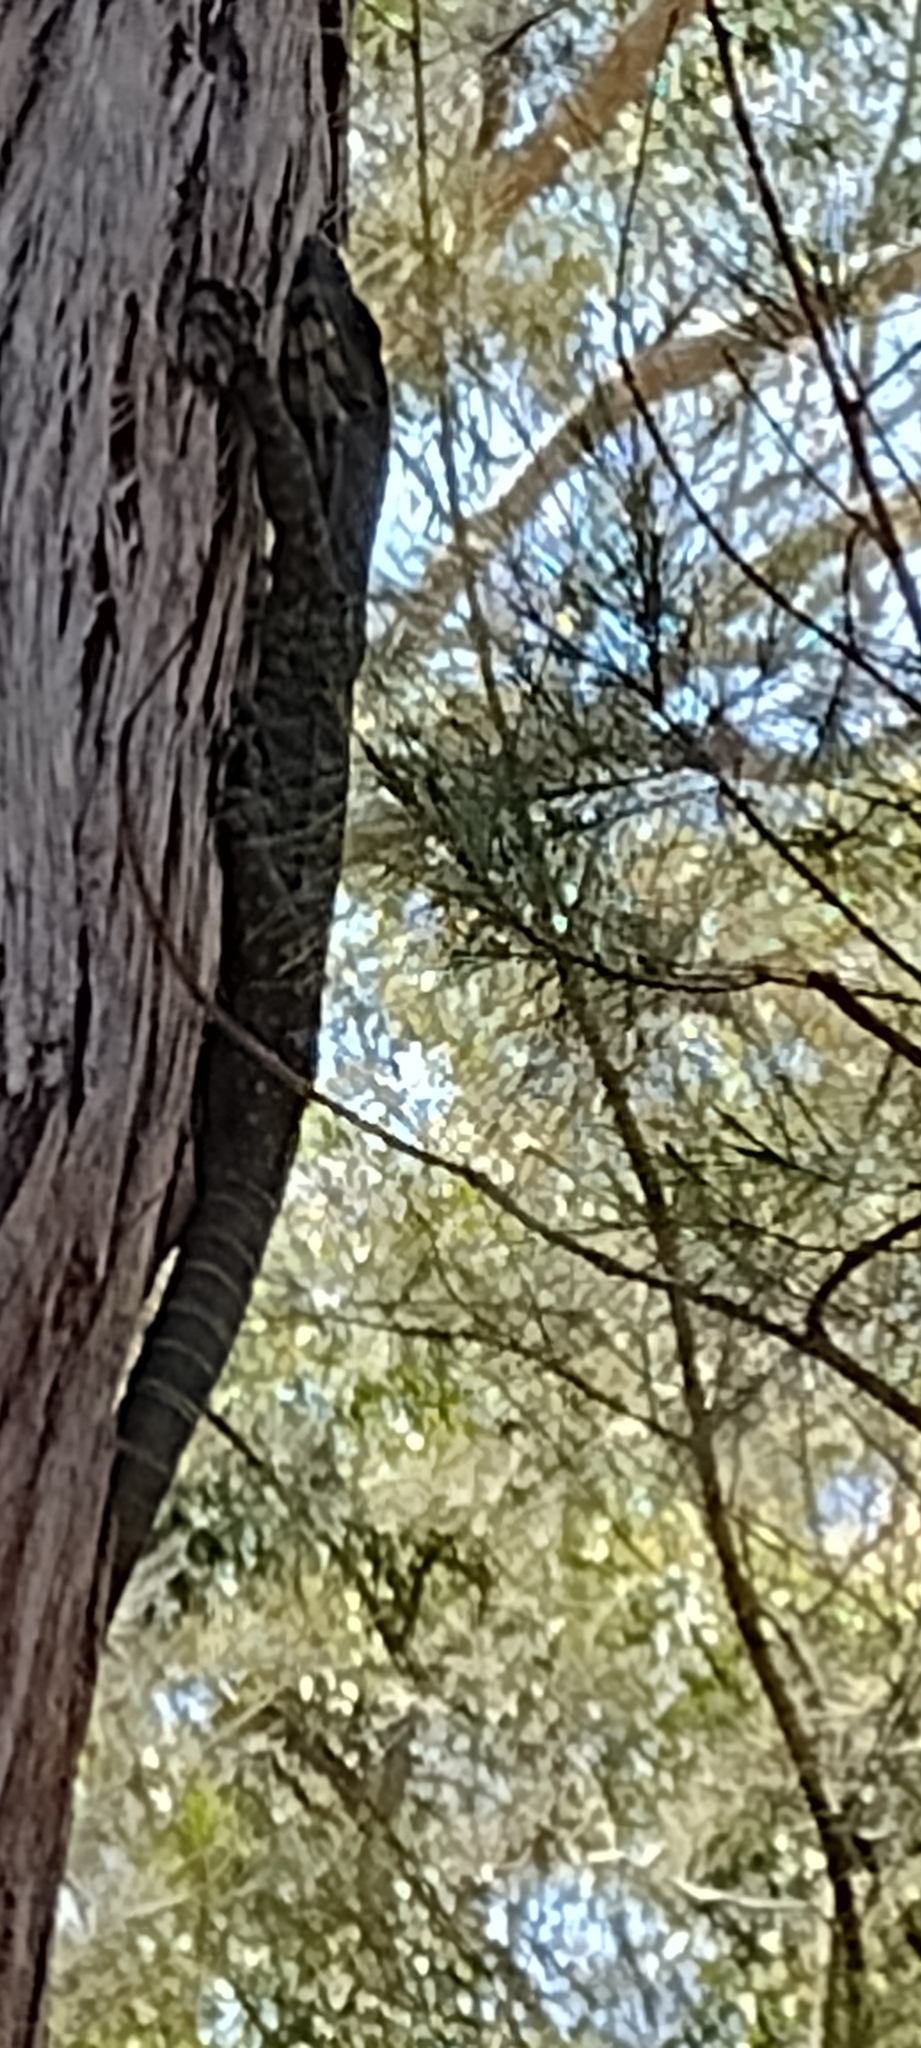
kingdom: Animalia
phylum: Chordata
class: Squamata
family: Varanidae
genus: Varanus
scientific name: Varanus varius
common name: Lace monitor
